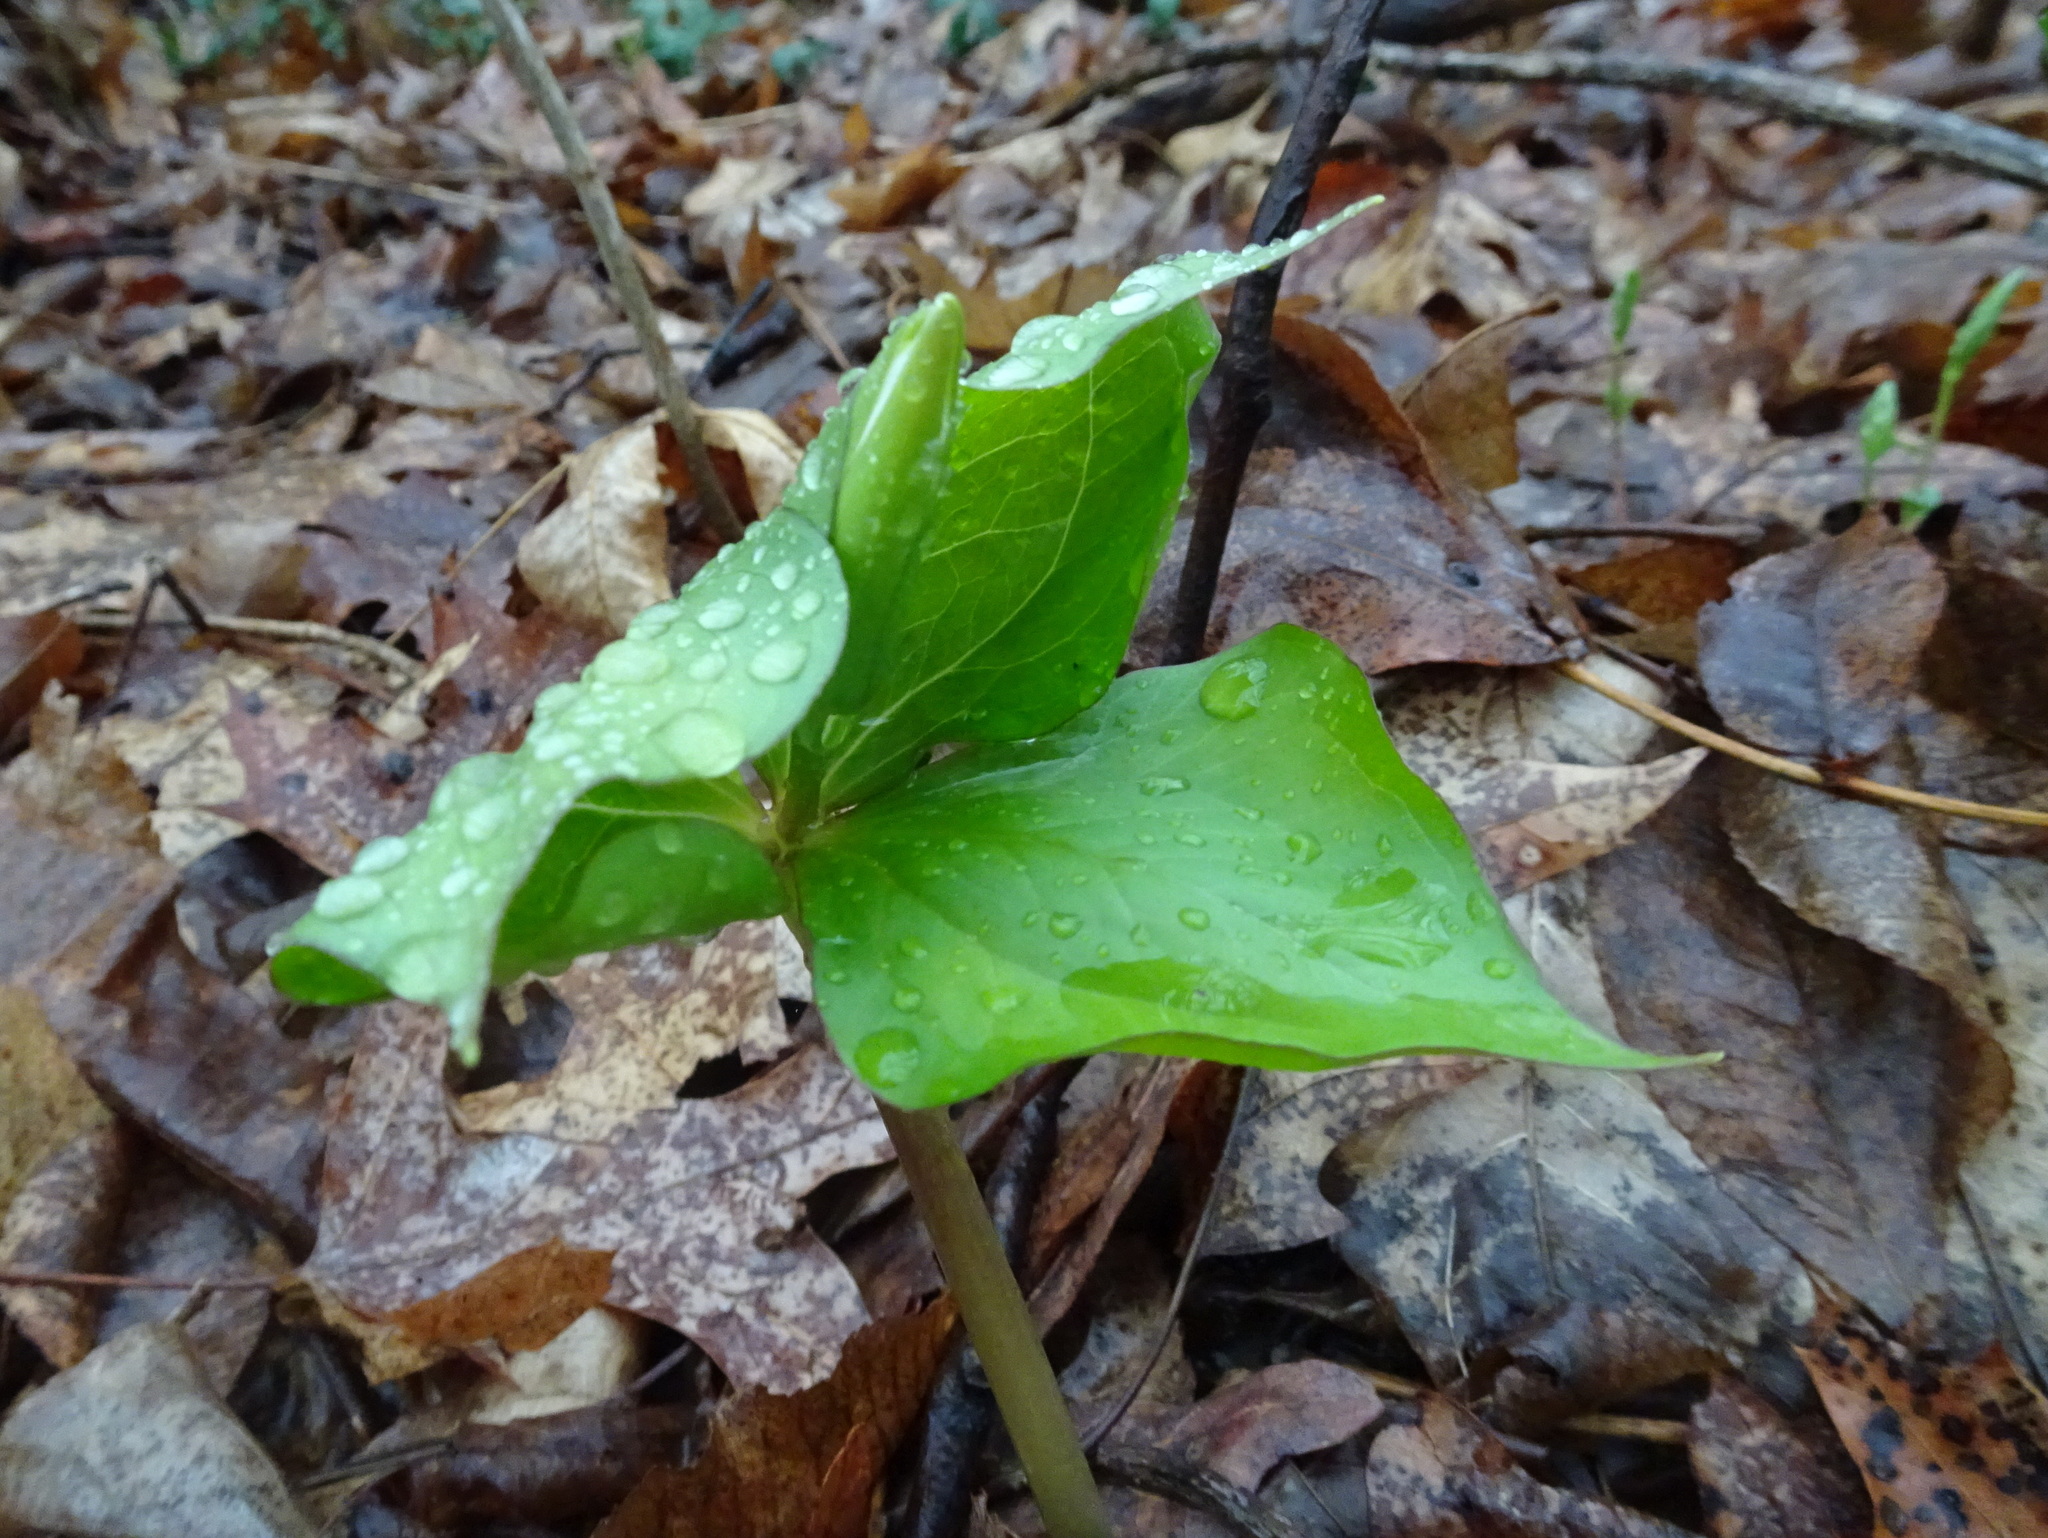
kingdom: Plantae
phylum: Tracheophyta
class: Liliopsida
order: Liliales
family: Melanthiaceae
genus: Trillium
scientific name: Trillium grandiflorum
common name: Great white trillium
